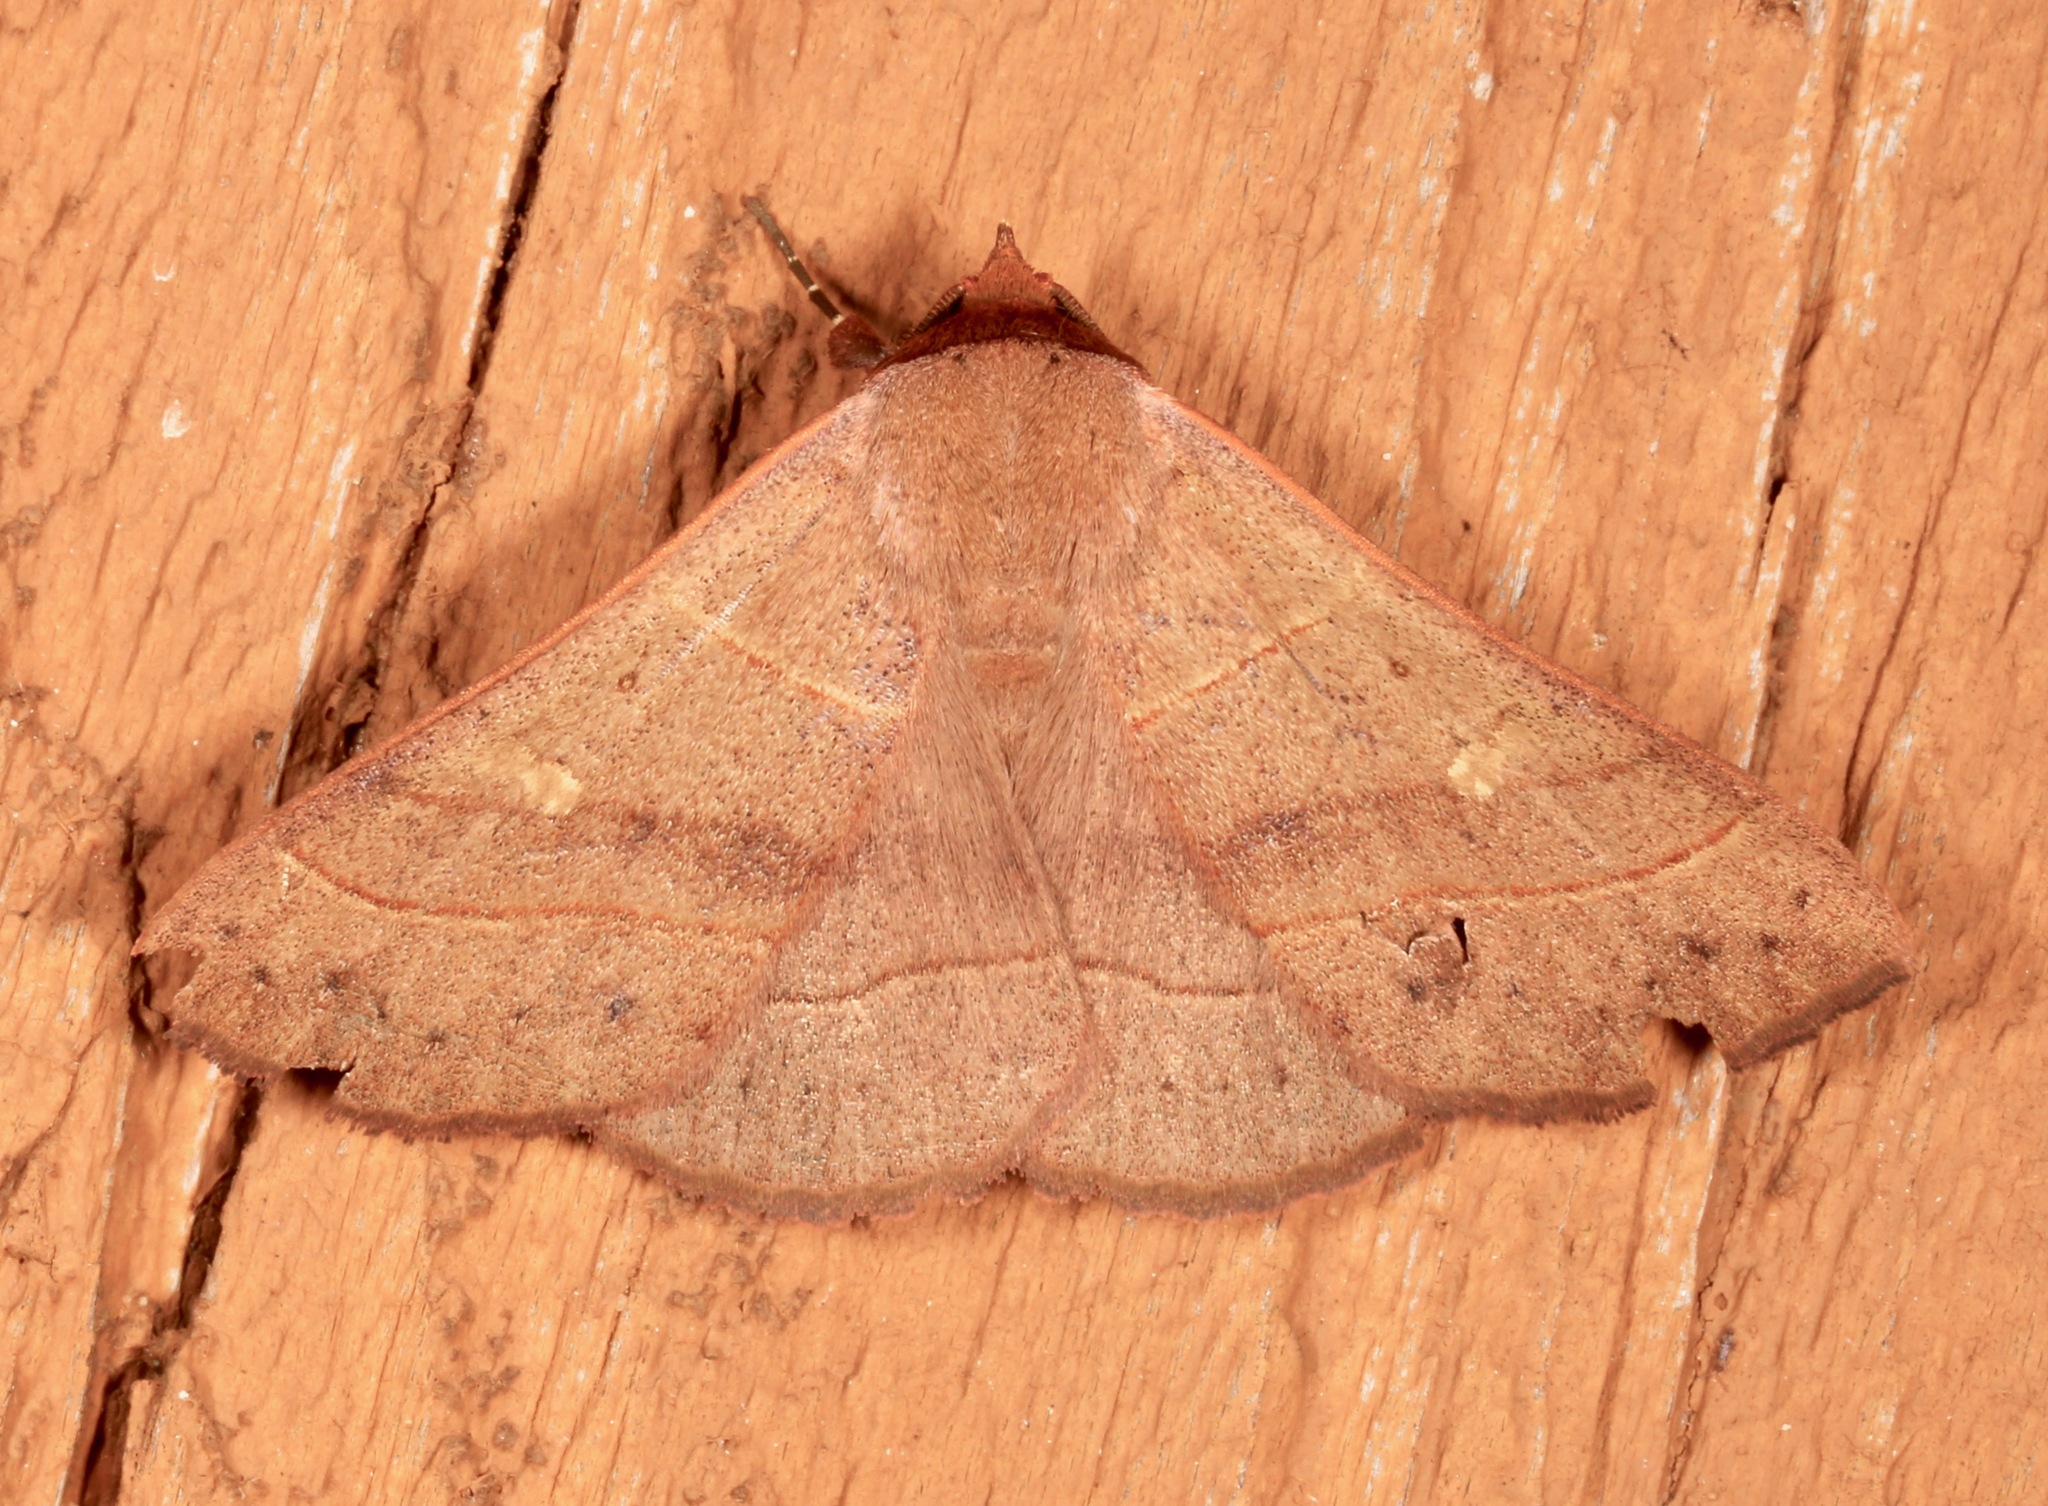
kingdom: Animalia
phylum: Arthropoda
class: Insecta
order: Lepidoptera
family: Erebidae
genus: Panopoda
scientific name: Panopoda rufimargo
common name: Red-lined panopoda moth
